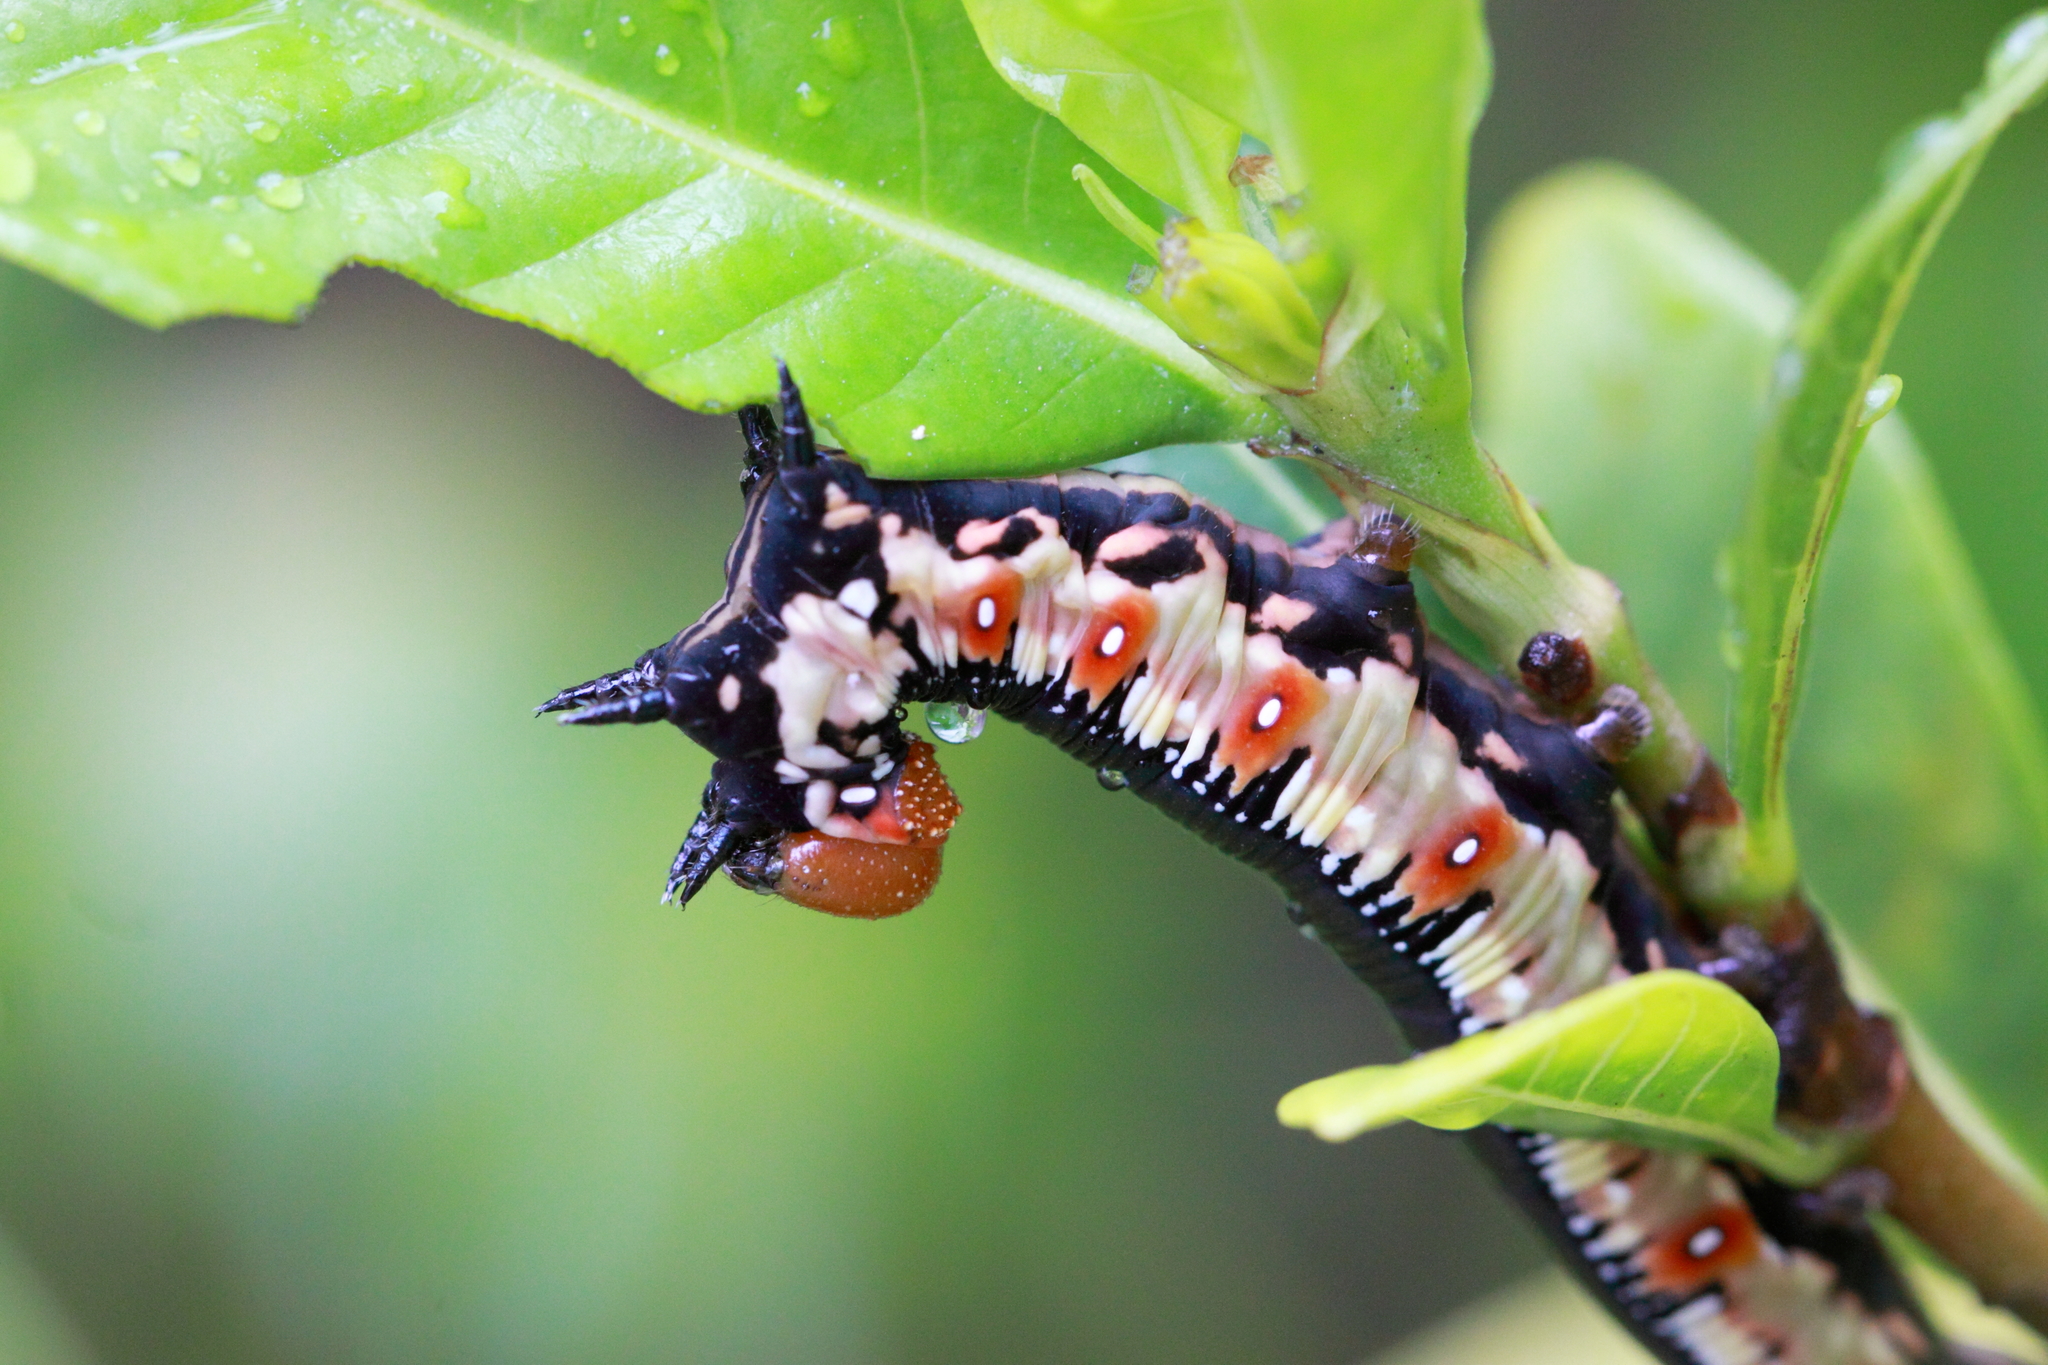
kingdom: Animalia
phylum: Arthropoda
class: Insecta
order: Lepidoptera
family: Sphingidae
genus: Cephonodes
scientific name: Cephonodes kingii
